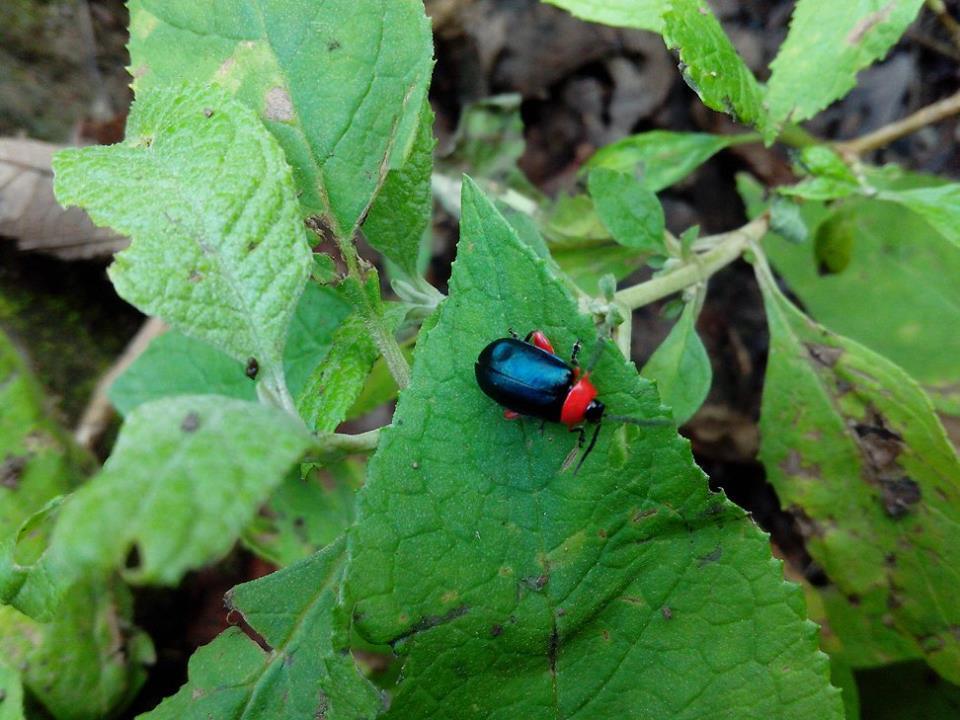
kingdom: Animalia
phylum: Arthropoda
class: Insecta
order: Coleoptera
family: Chrysomelidae
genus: Asphaera
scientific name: Asphaera abdominalis
